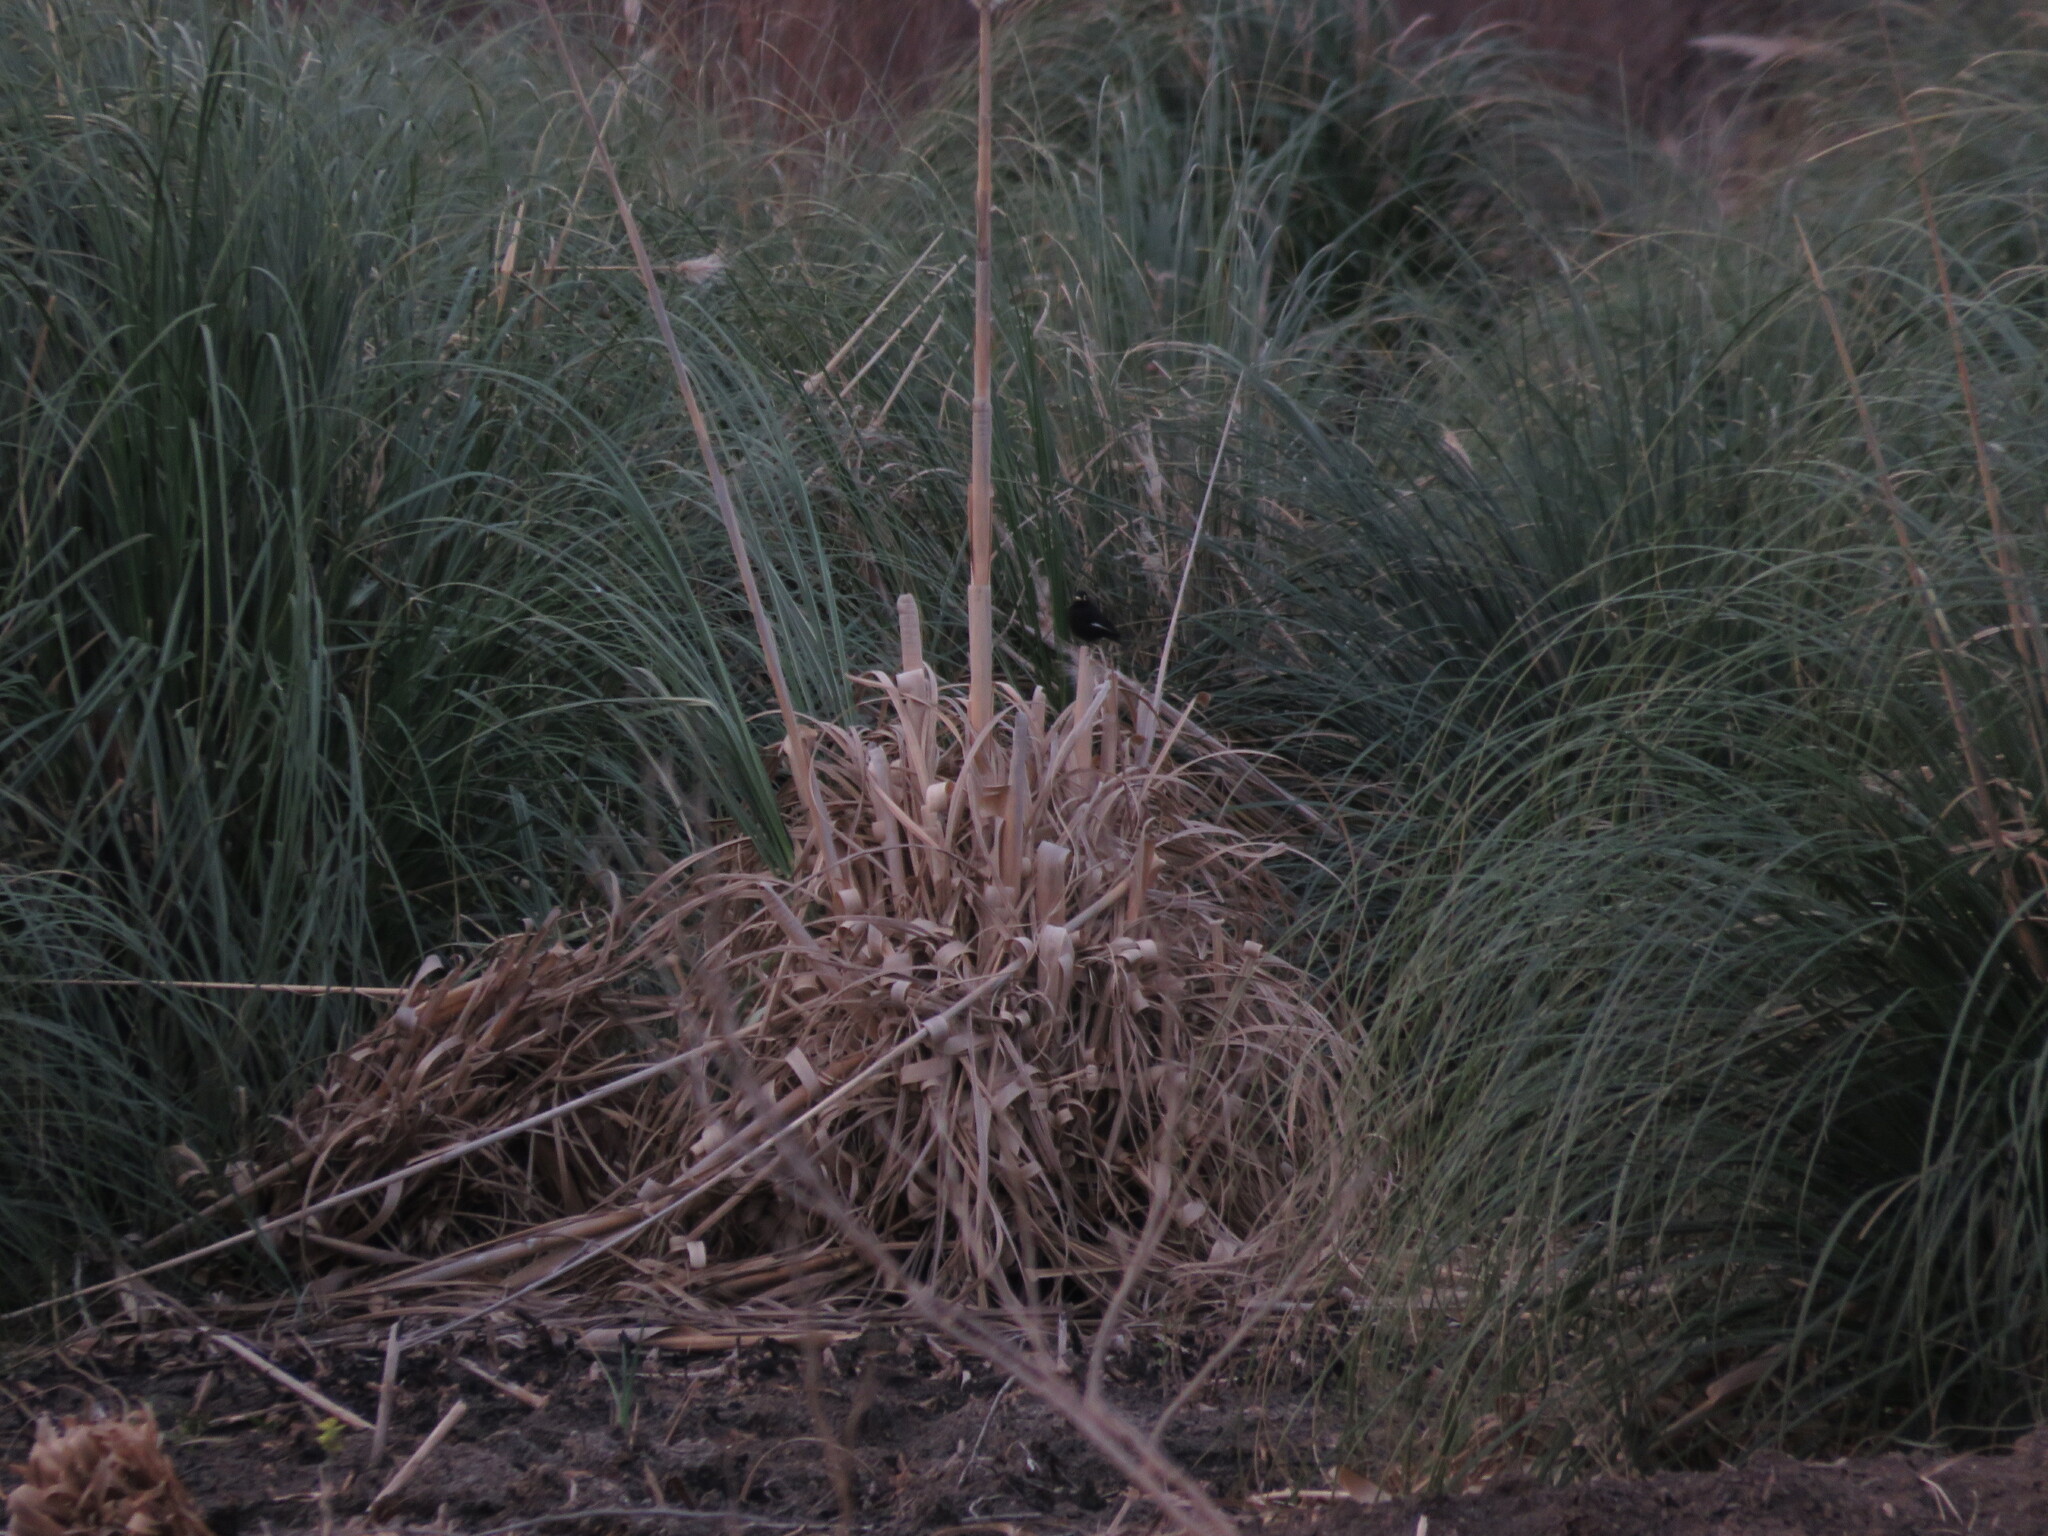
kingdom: Animalia
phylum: Chordata
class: Aves
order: Passeriformes
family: Tyrannidae
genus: Hymenops
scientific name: Hymenops perspicillatus
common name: Spectacled tyrant
